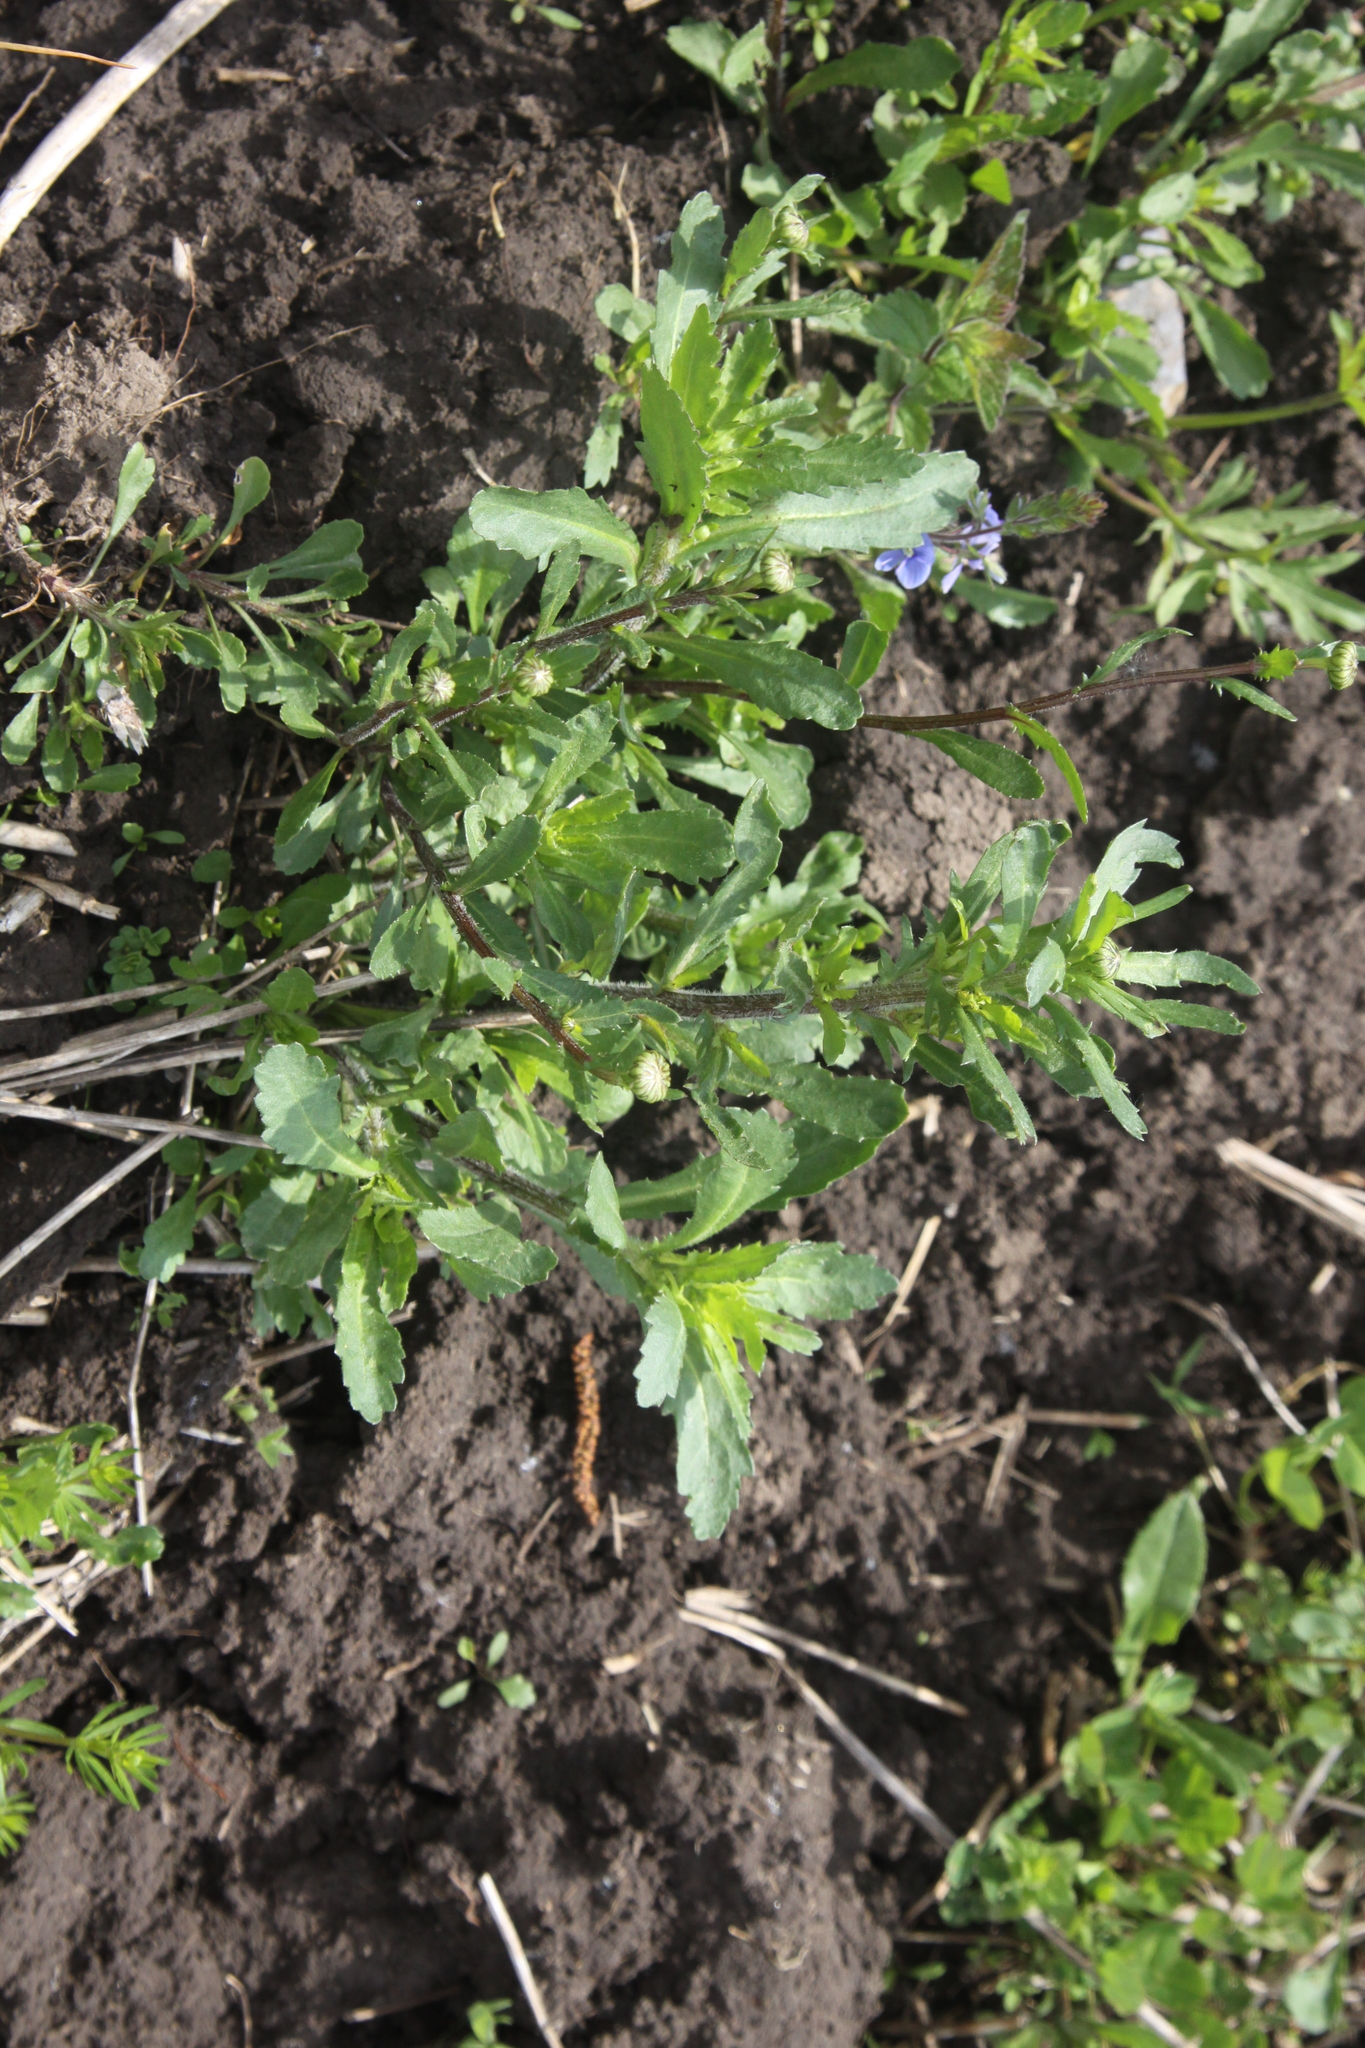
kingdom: Plantae
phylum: Tracheophyta
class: Magnoliopsida
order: Asterales
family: Asteraceae
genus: Leucanthemum
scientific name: Leucanthemum vulgare
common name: Oxeye daisy
